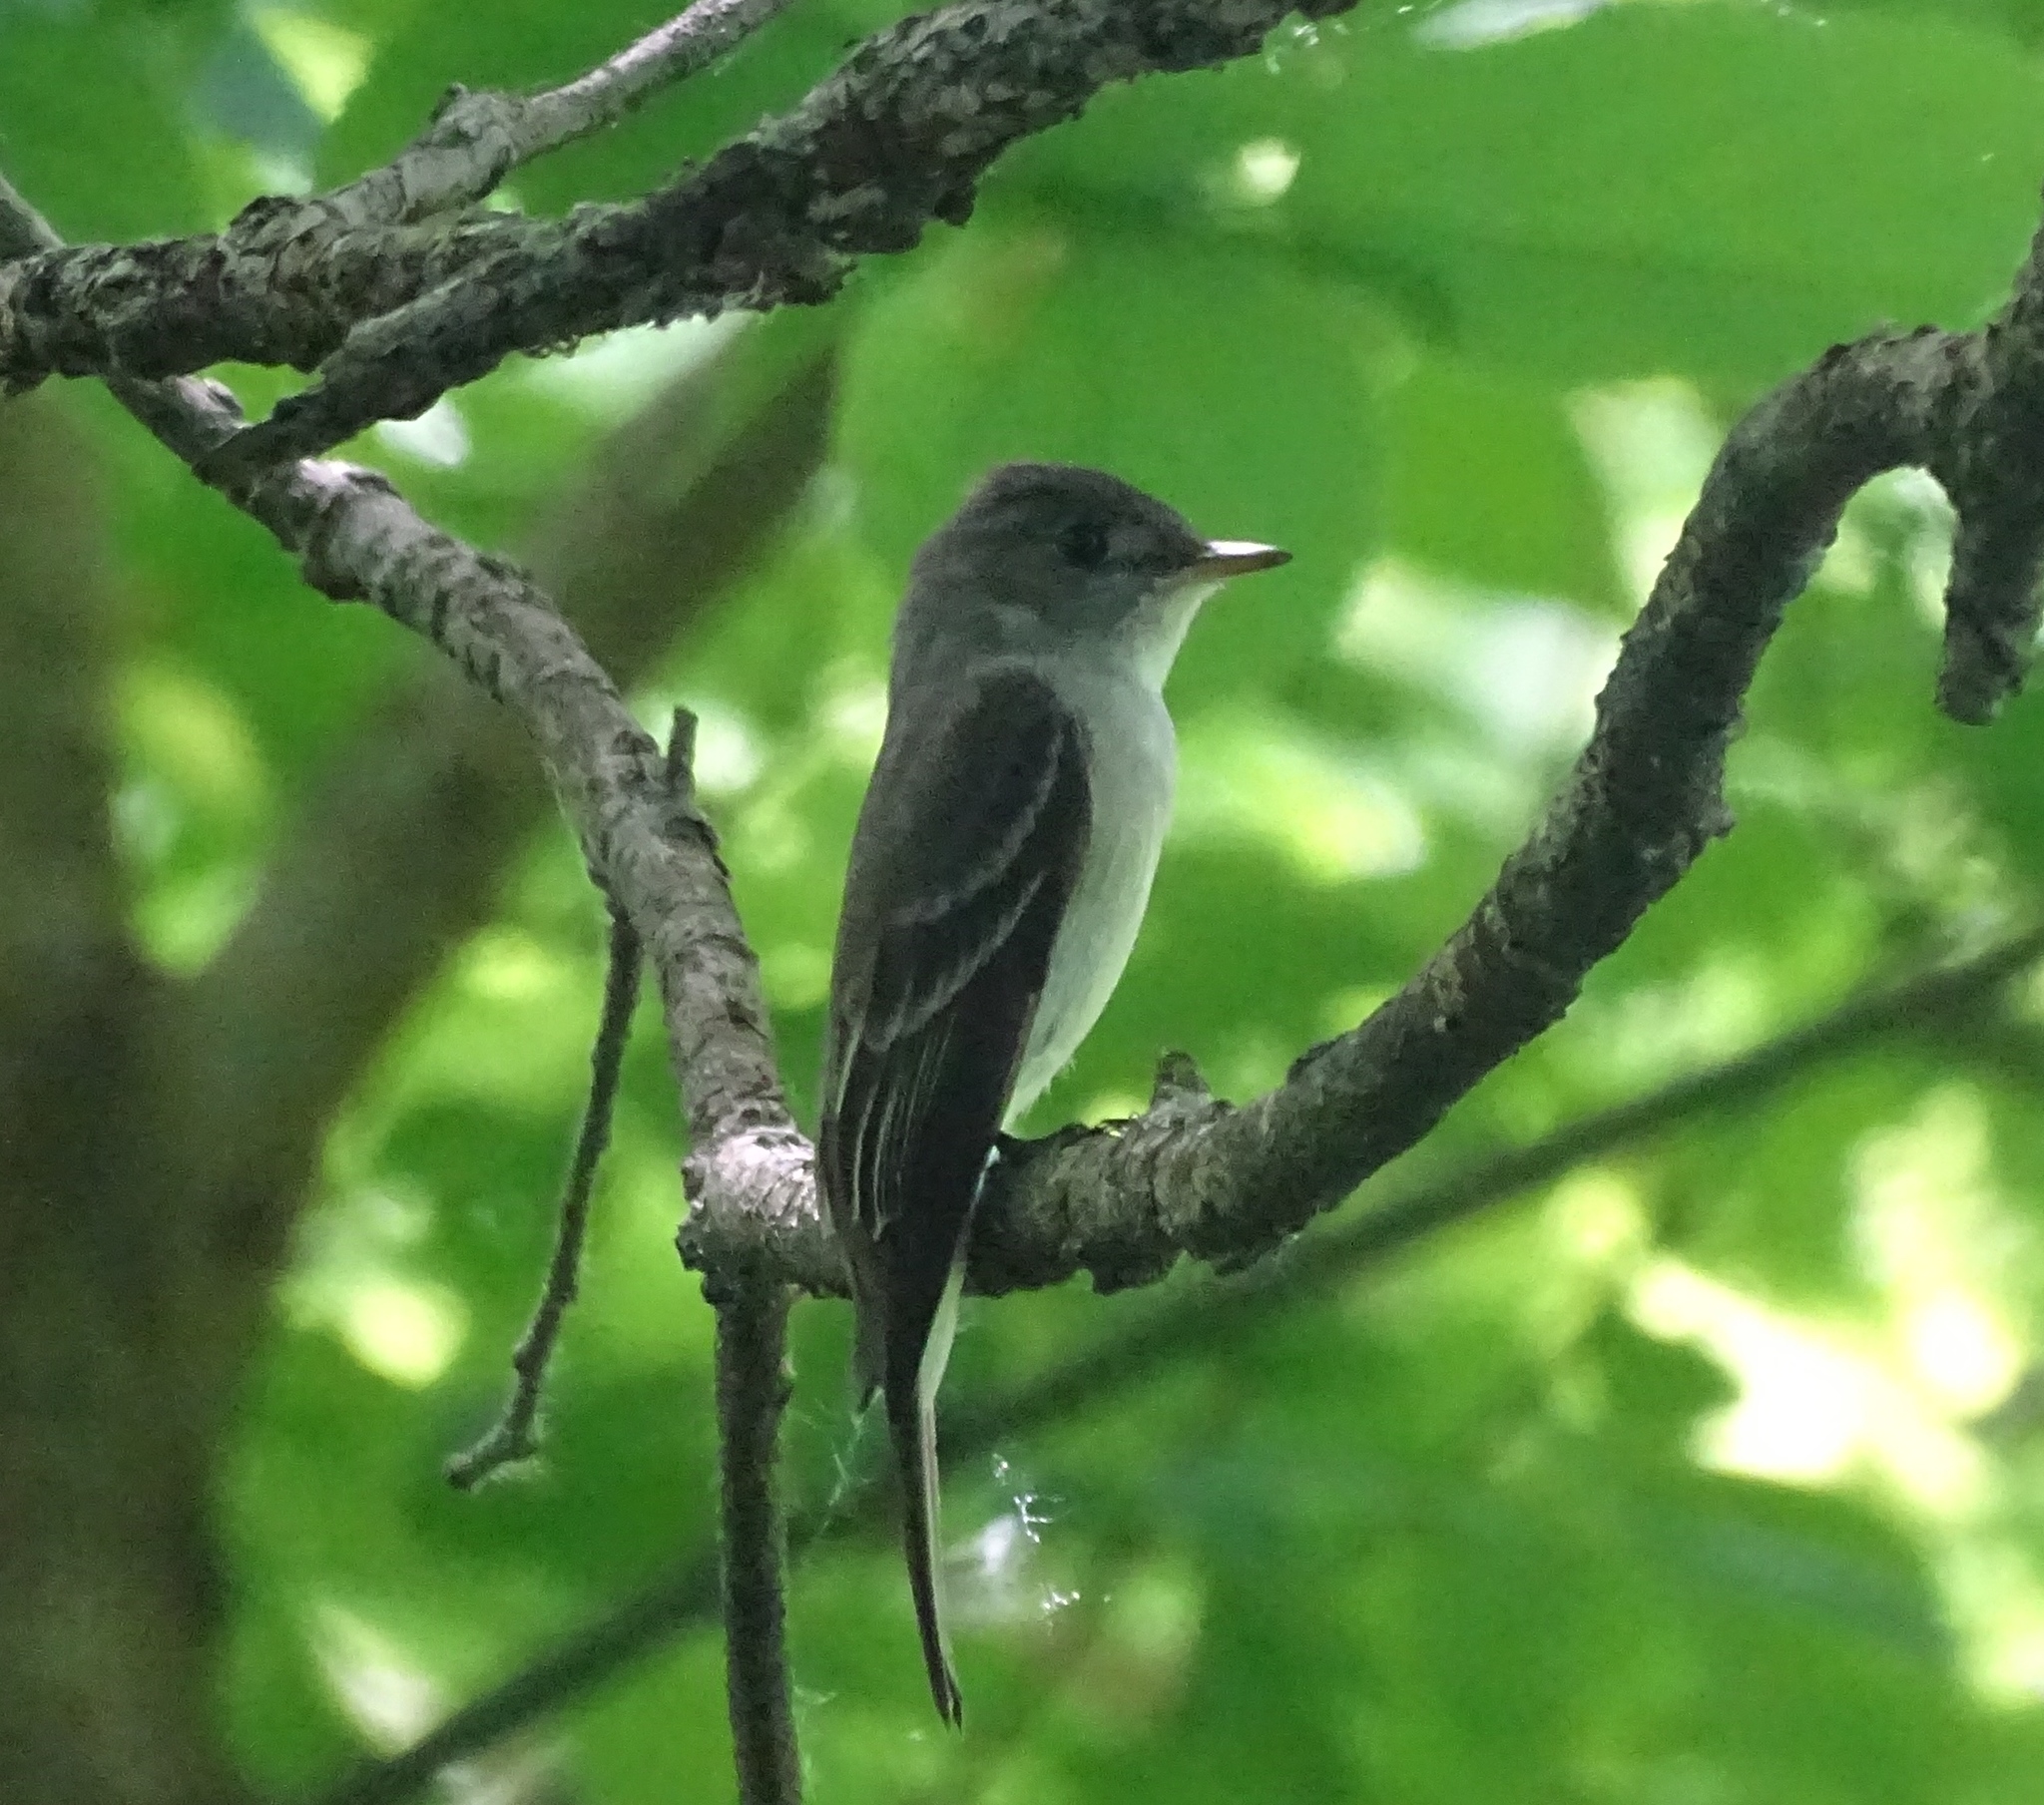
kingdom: Animalia
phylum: Chordata
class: Aves
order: Passeriformes
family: Tyrannidae
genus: Contopus
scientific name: Contopus virens
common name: Eastern wood-pewee
